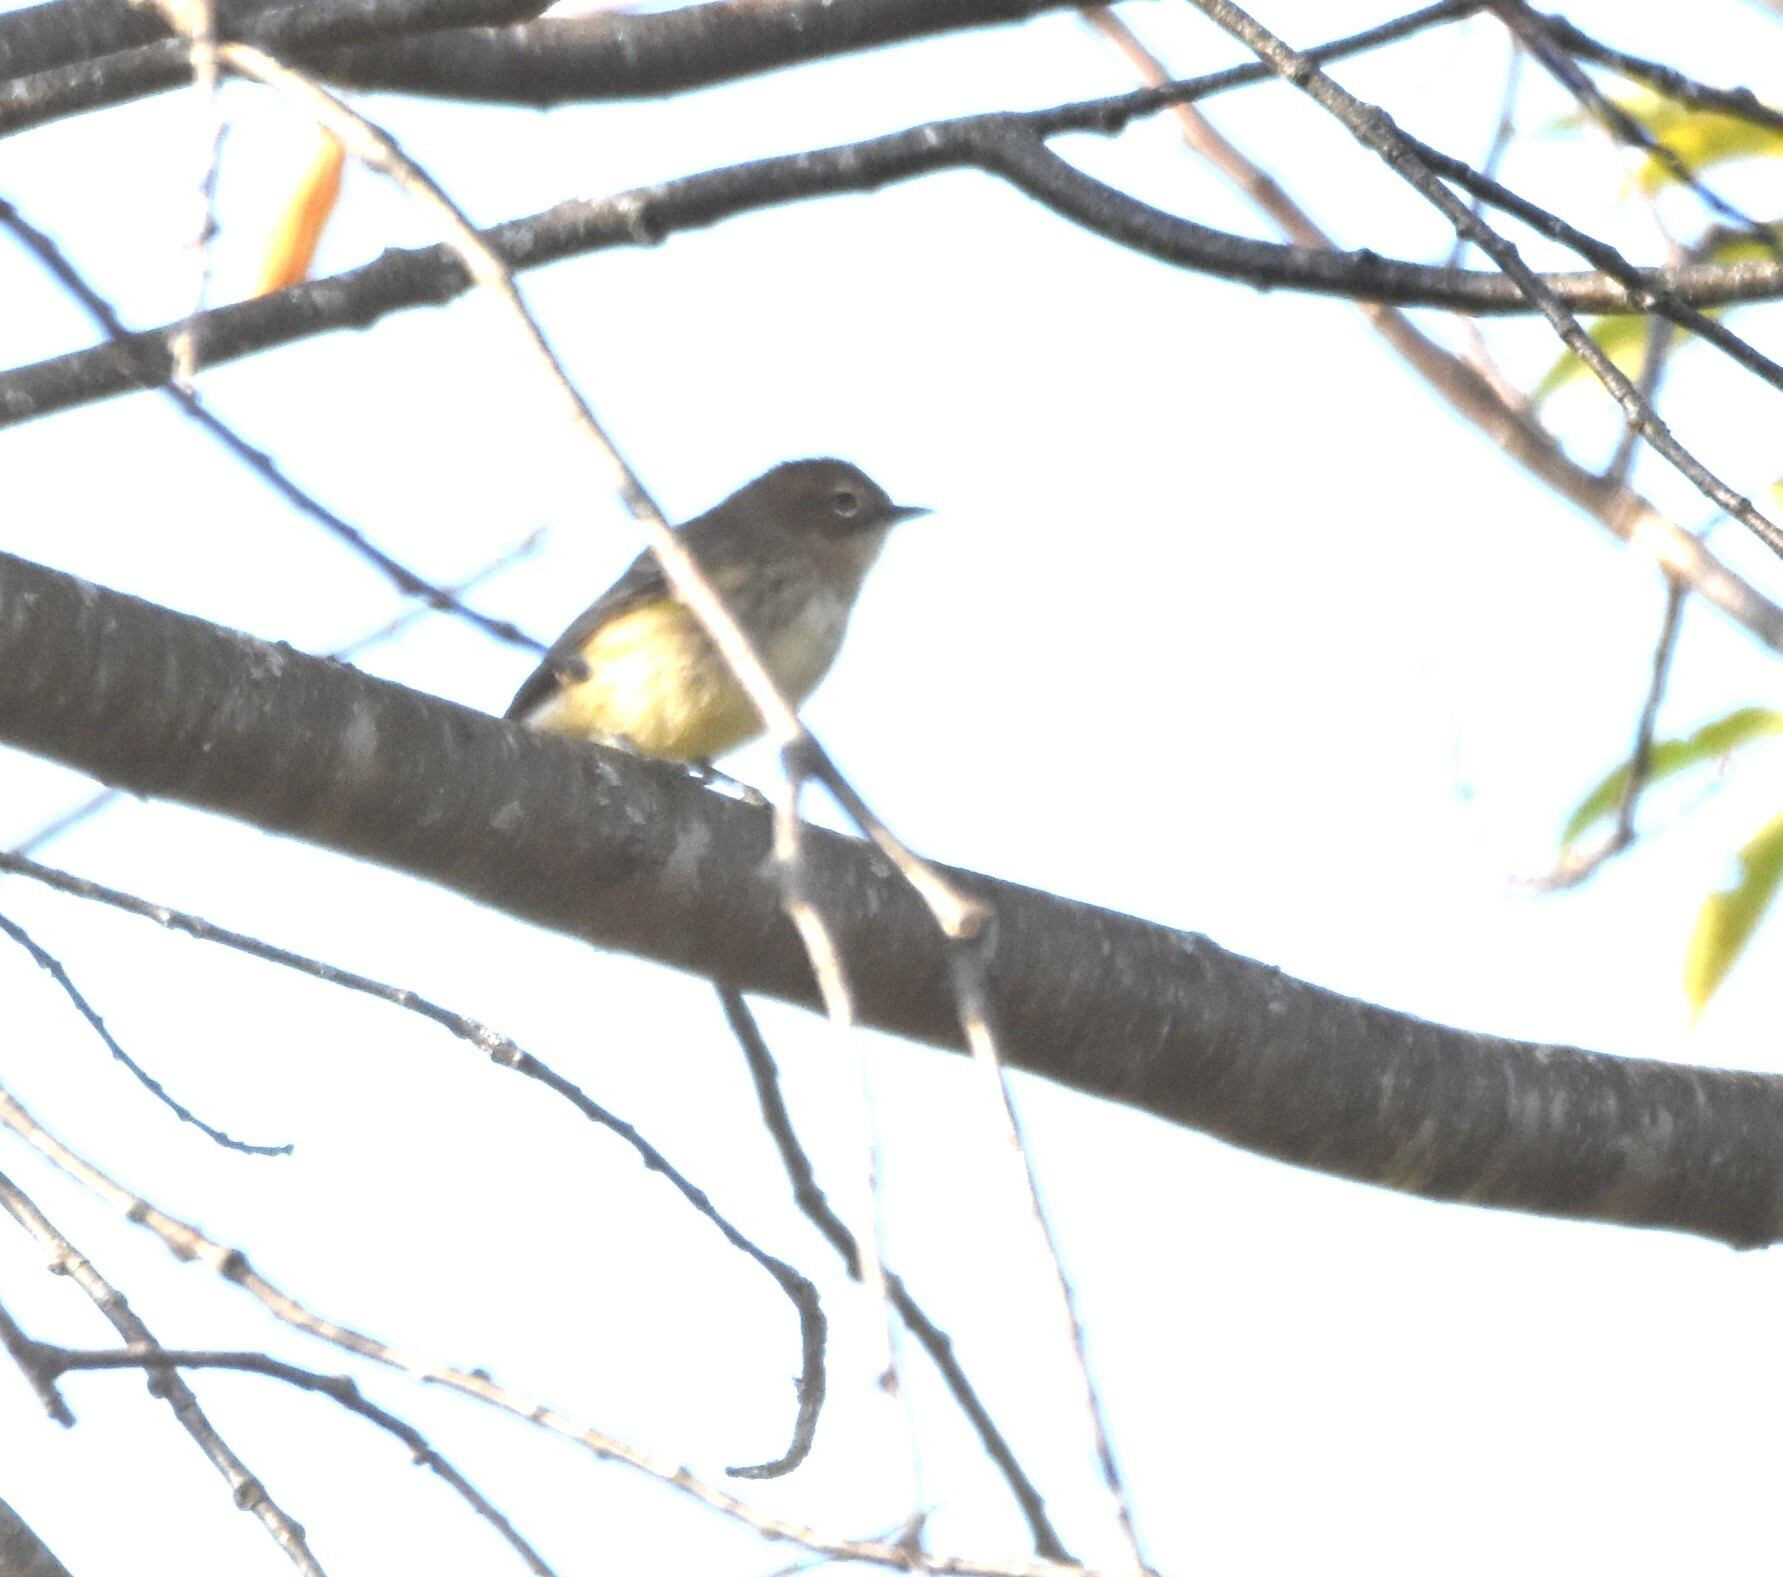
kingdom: Animalia
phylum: Chordata
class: Aves
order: Passeriformes
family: Parulidae
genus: Setophaga
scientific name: Setophaga coronata
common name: Myrtle warbler
